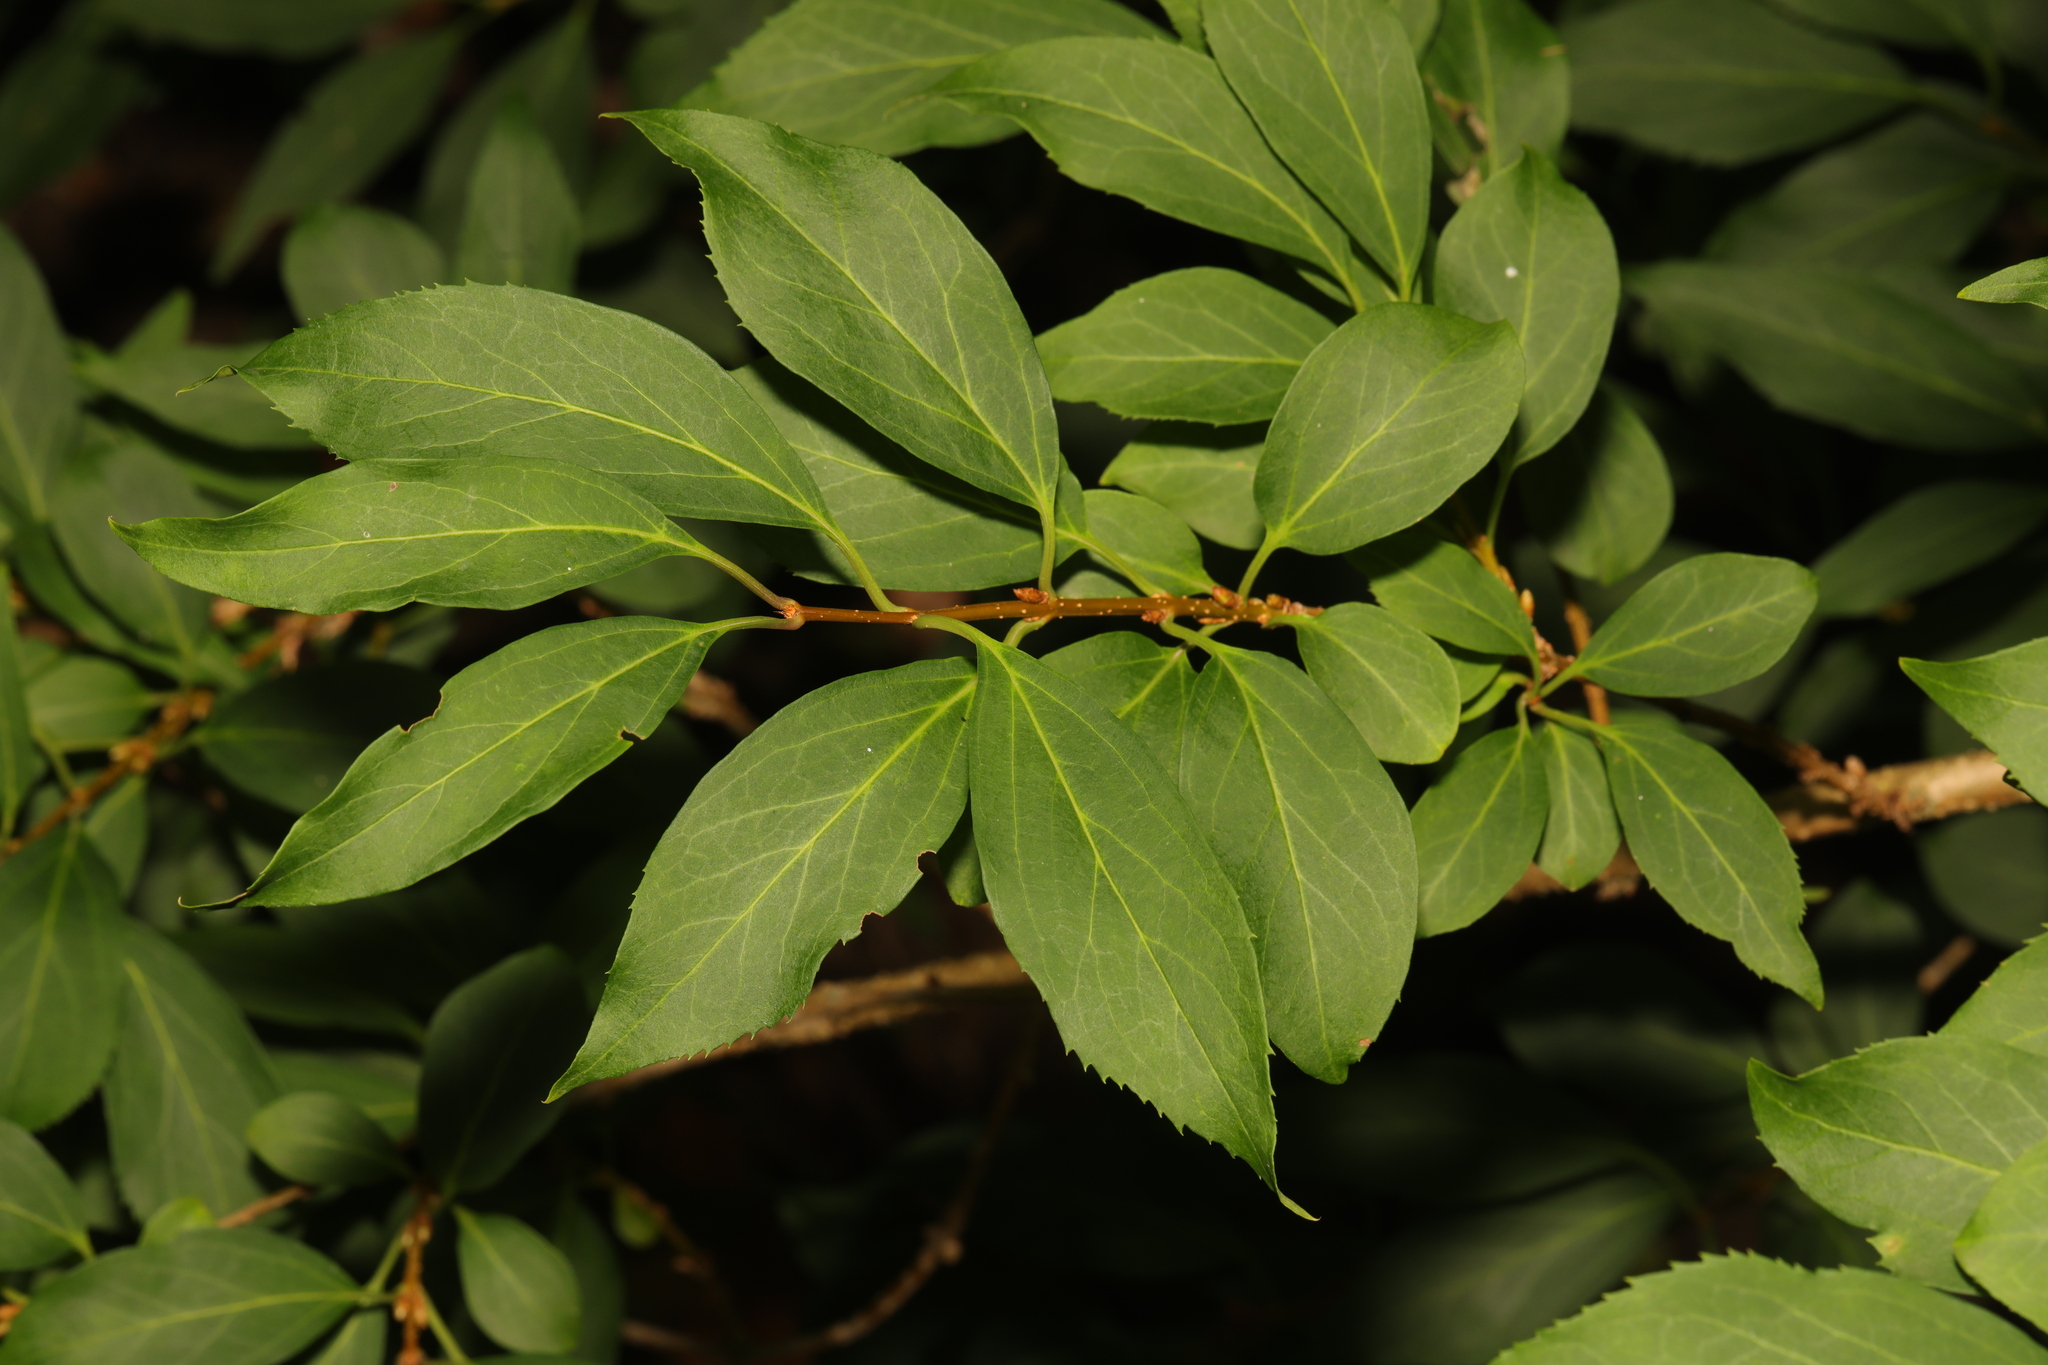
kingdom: Plantae
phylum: Tracheophyta
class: Magnoliopsida
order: Lamiales
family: Oleaceae
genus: Forsythia
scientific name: Forsythia intermedia
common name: Forsythia
